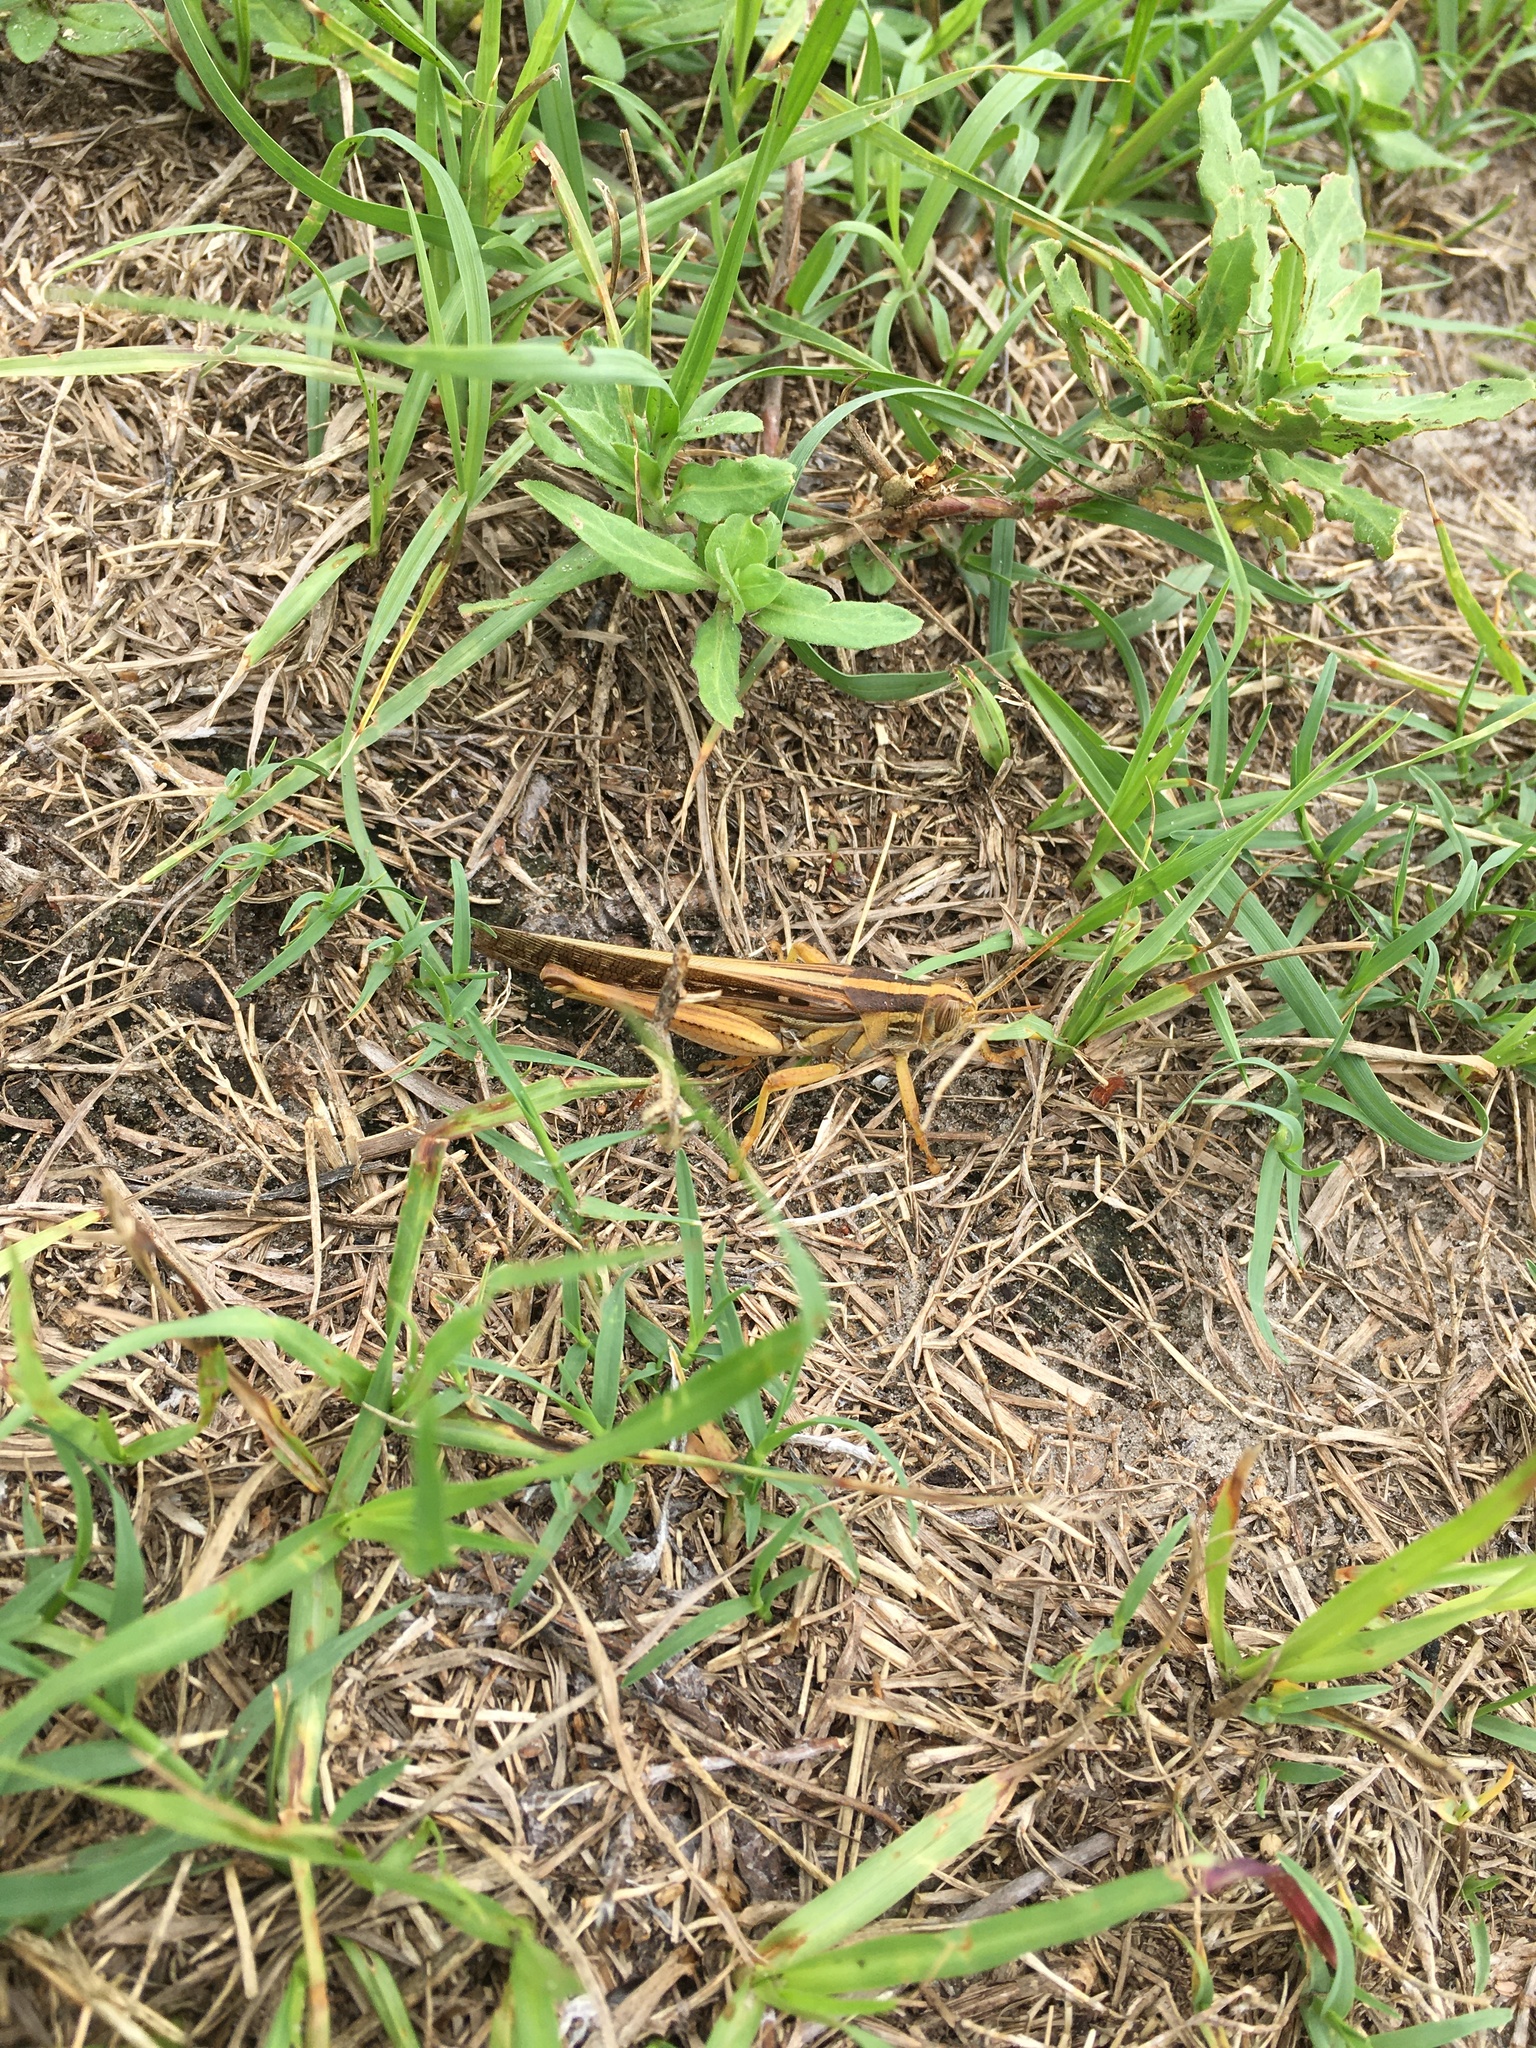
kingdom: Animalia
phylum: Arthropoda
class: Insecta
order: Orthoptera
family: Acrididae
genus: Schistocerca
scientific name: Schistocerca americana
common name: American bird locust
